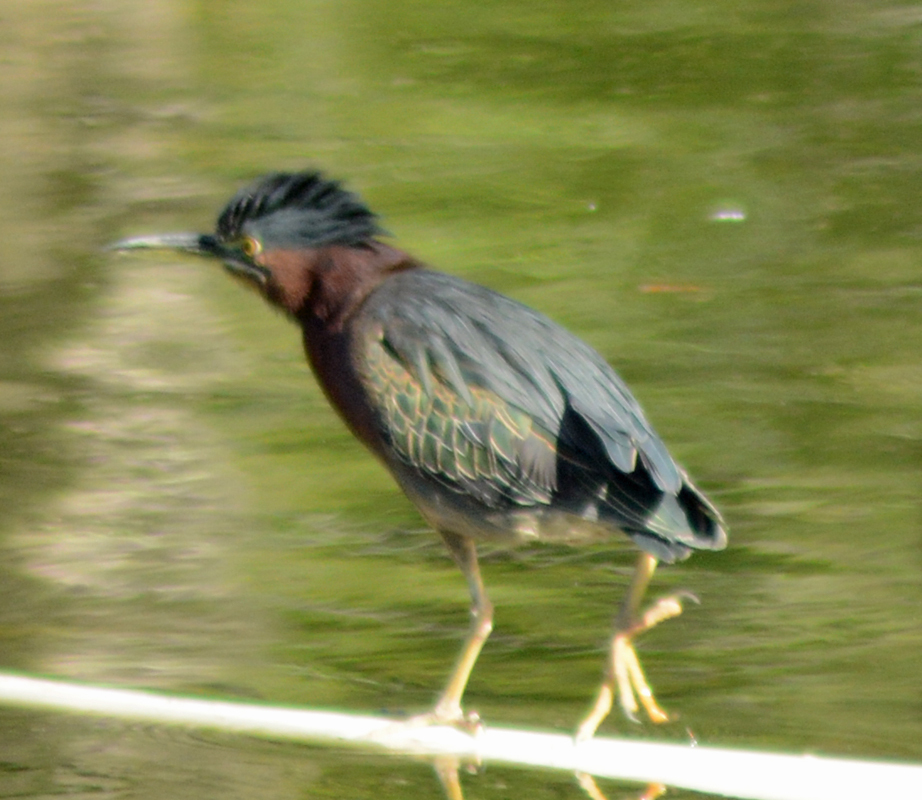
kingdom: Animalia
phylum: Chordata
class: Aves
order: Pelecaniformes
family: Ardeidae
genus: Butorides
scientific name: Butorides virescens
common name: Green heron
